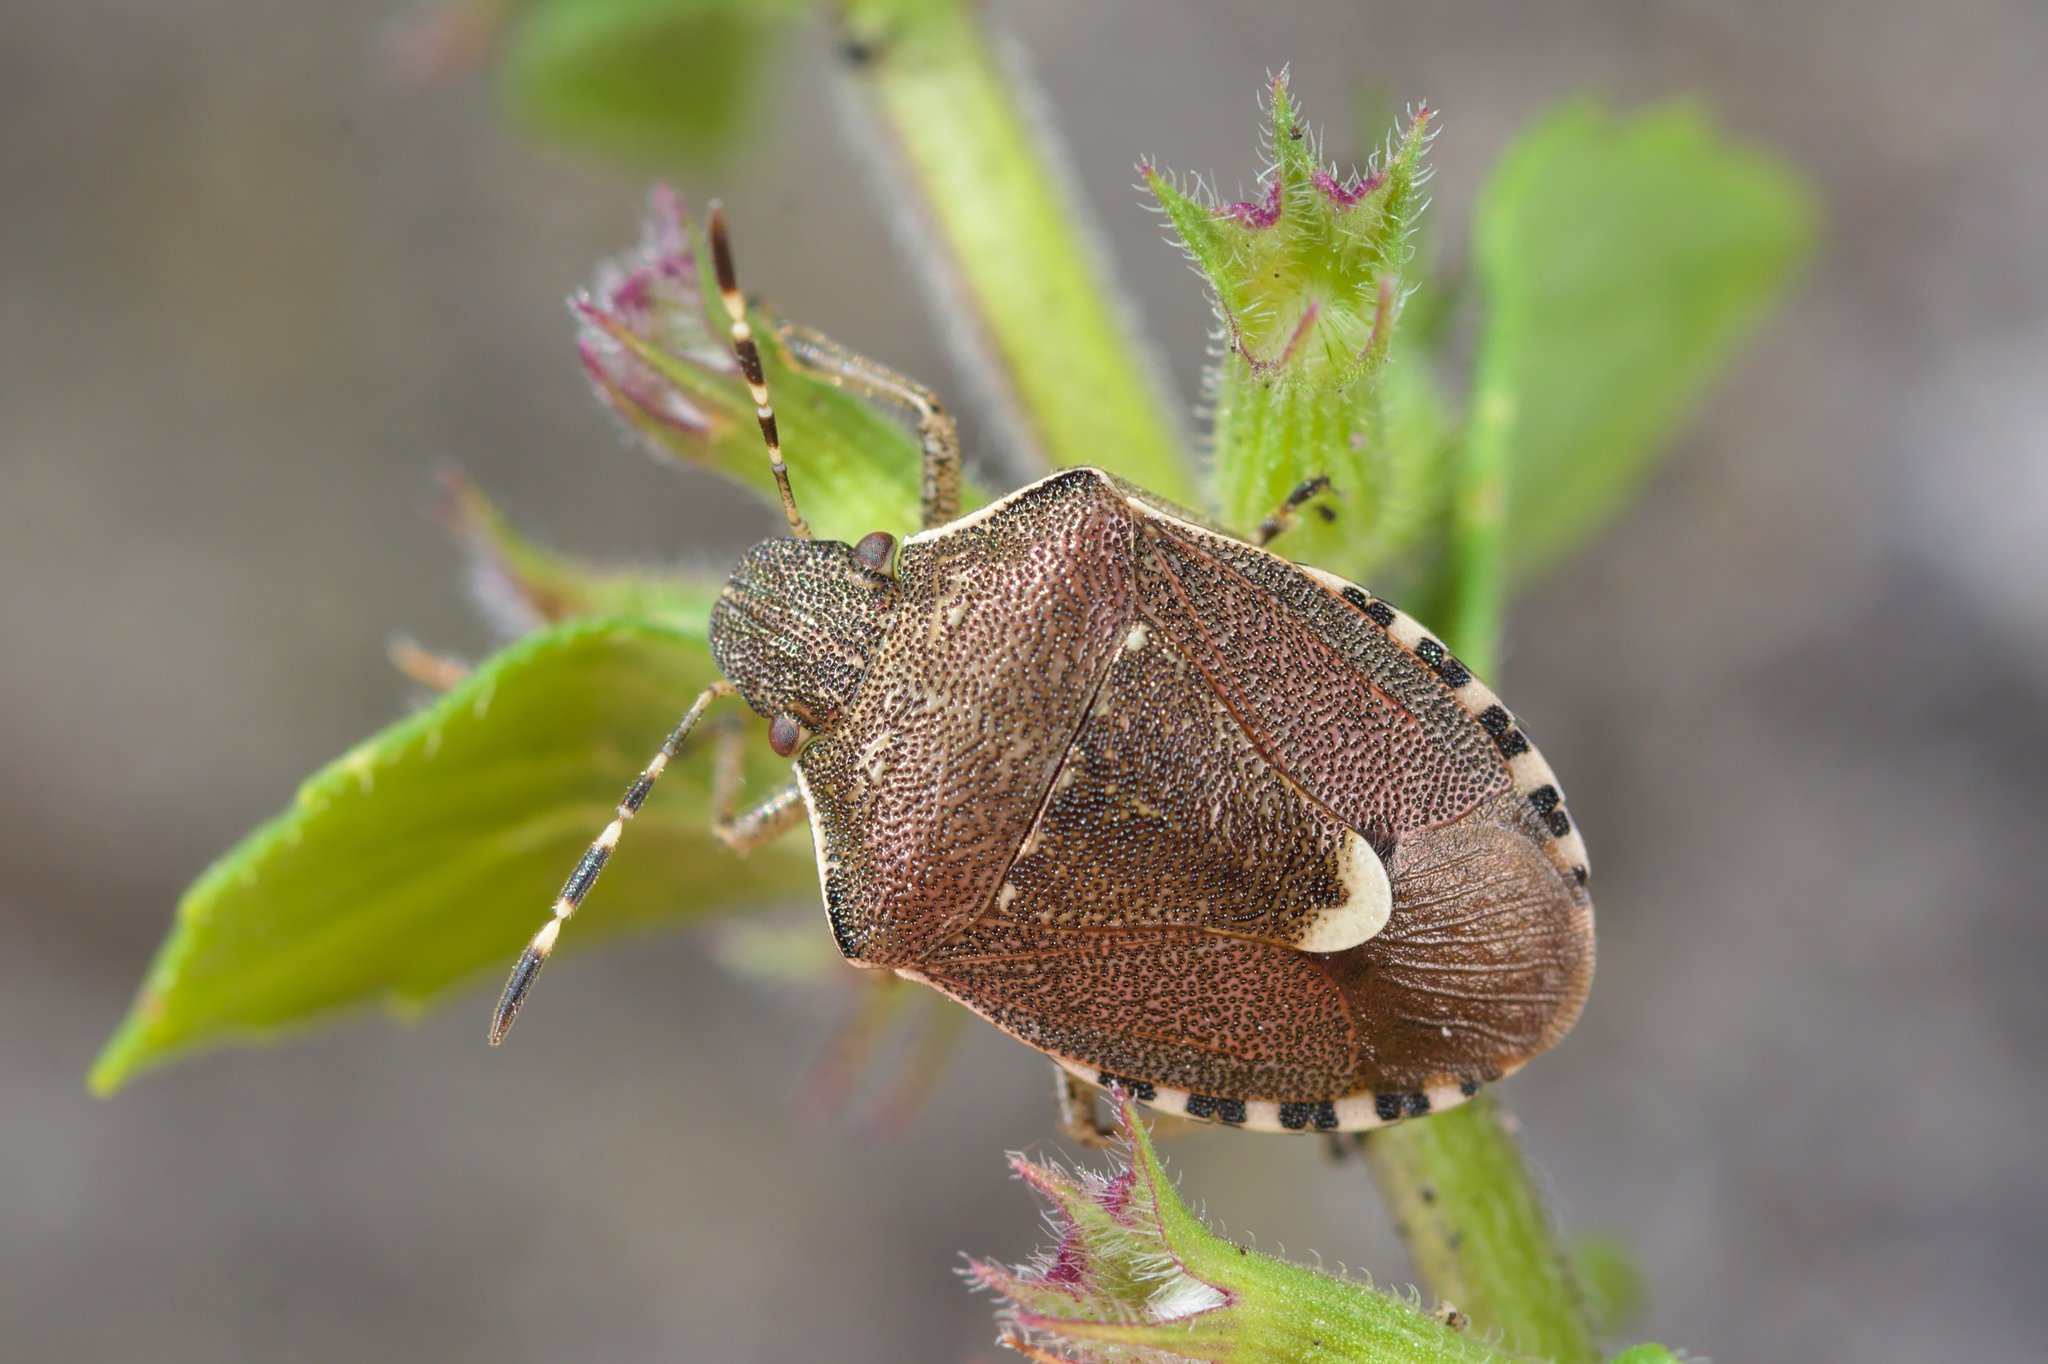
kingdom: Animalia
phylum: Arthropoda
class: Insecta
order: Hemiptera
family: Pentatomidae
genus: Holcostethus
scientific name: Holcostethus sphacelatus
